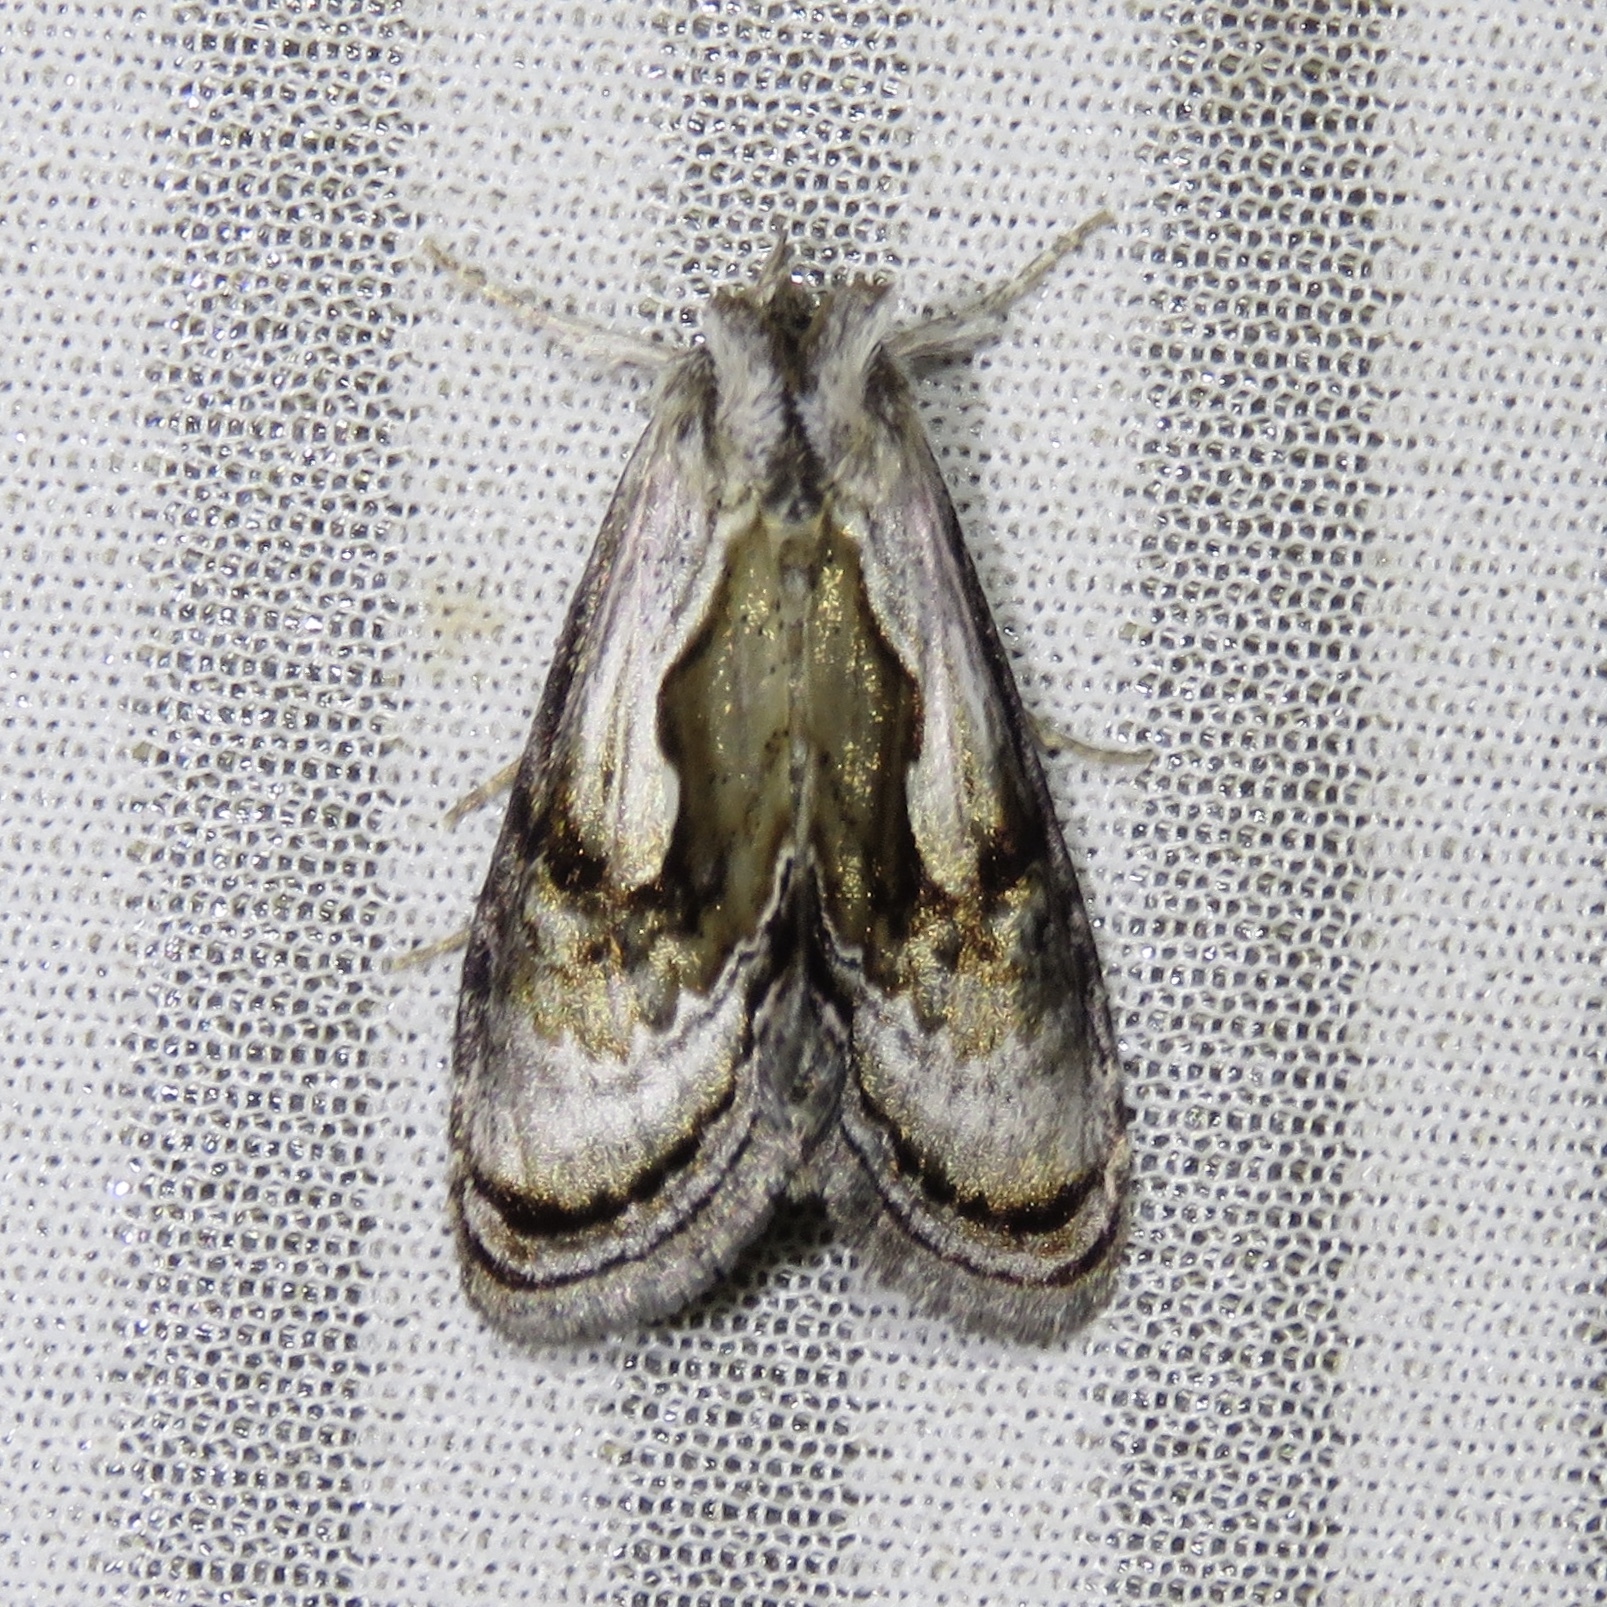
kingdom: Animalia
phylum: Arthropoda
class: Insecta
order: Lepidoptera
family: Noctuidae
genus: Chrysanympha
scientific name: Chrysanympha formosa
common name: Formosa looper moth
